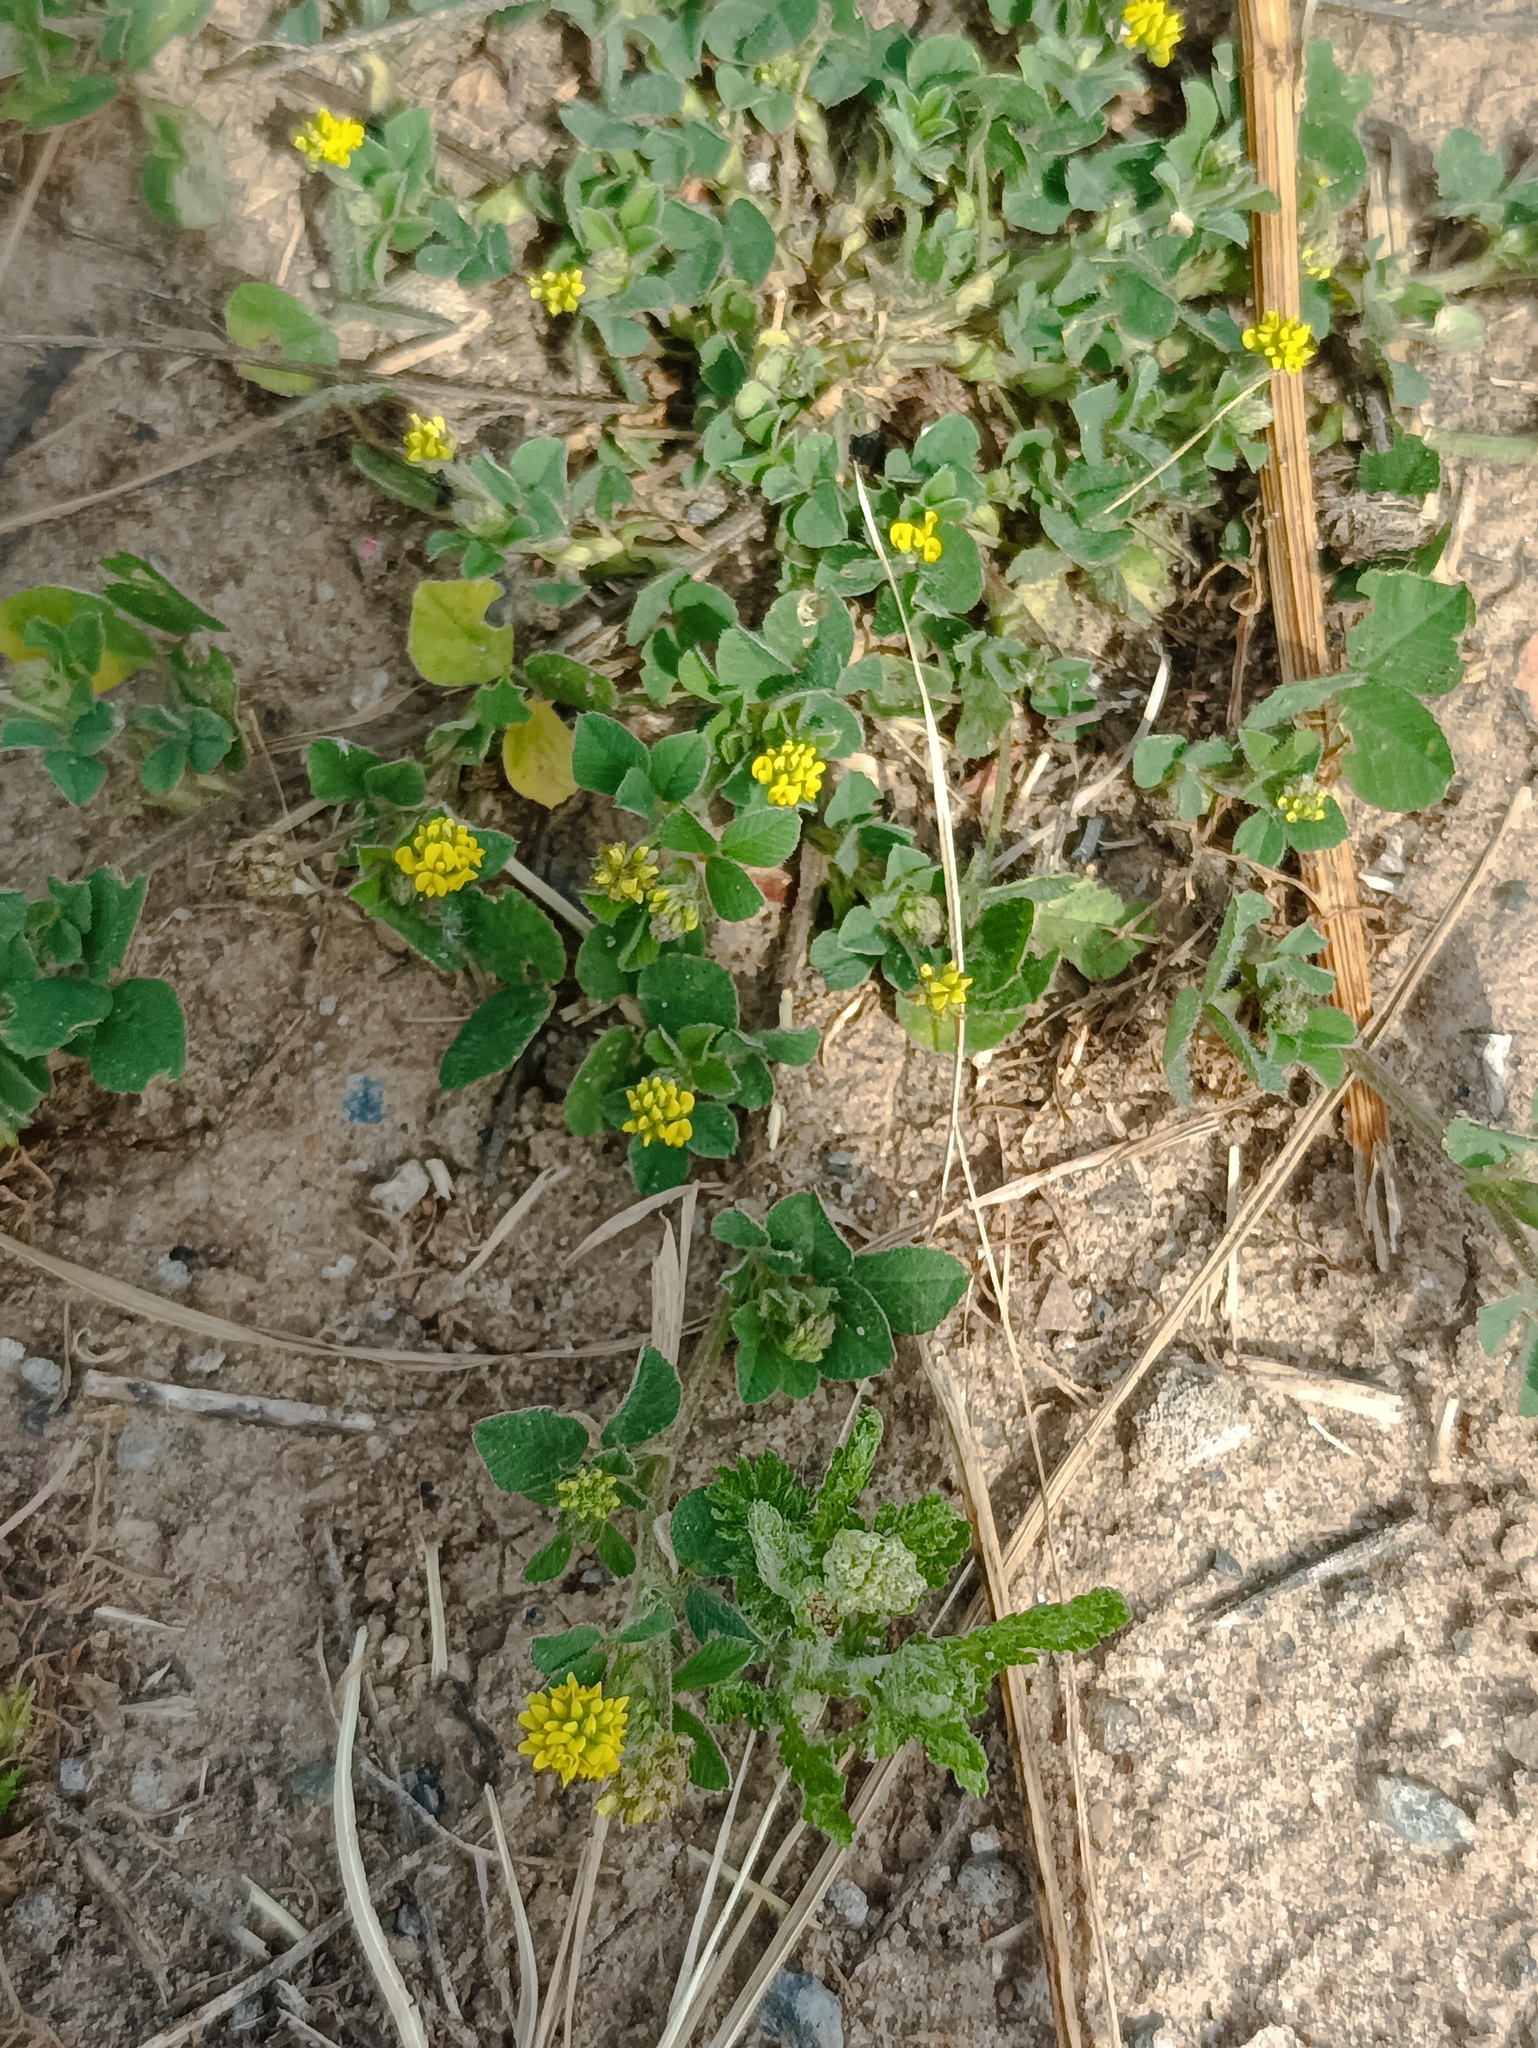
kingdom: Plantae
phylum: Tracheophyta
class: Magnoliopsida
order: Fabales
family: Fabaceae
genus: Medicago
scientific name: Medicago lupulina
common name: Black medick
